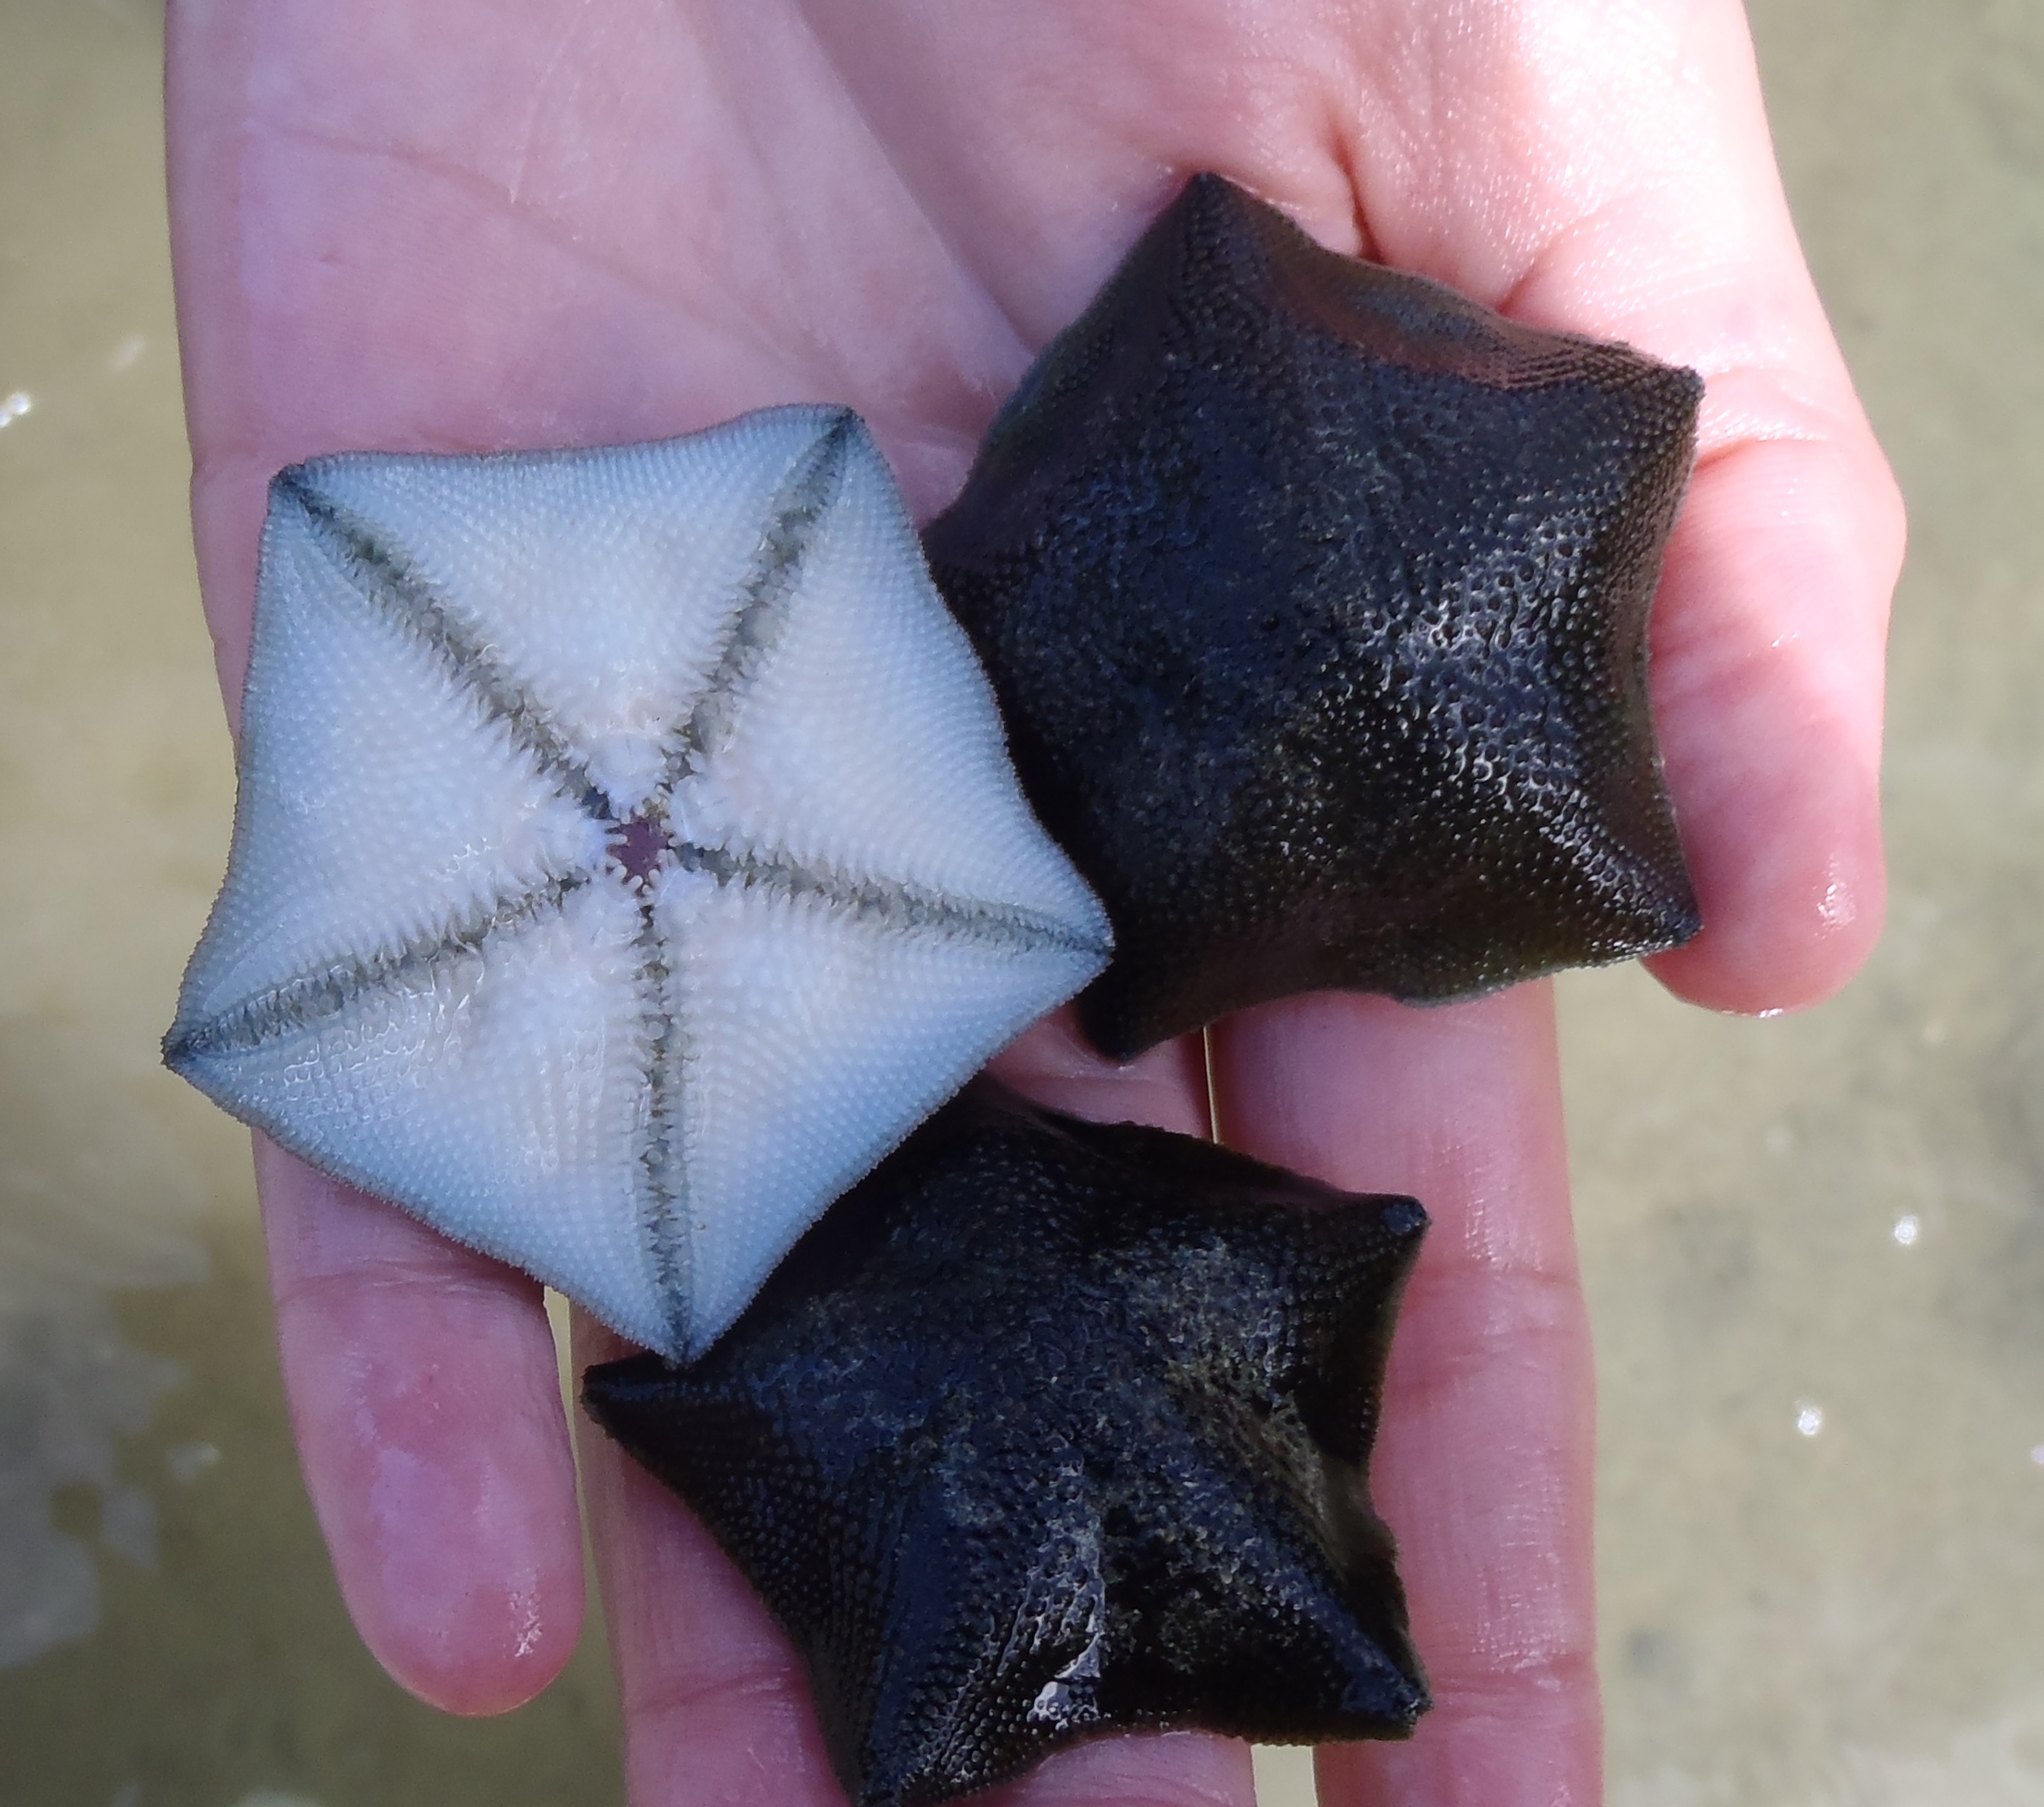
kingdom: Animalia
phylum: Echinodermata
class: Asteroidea
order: Valvatida
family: Asterinidae
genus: Patiriella
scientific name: Patiriella regularis
